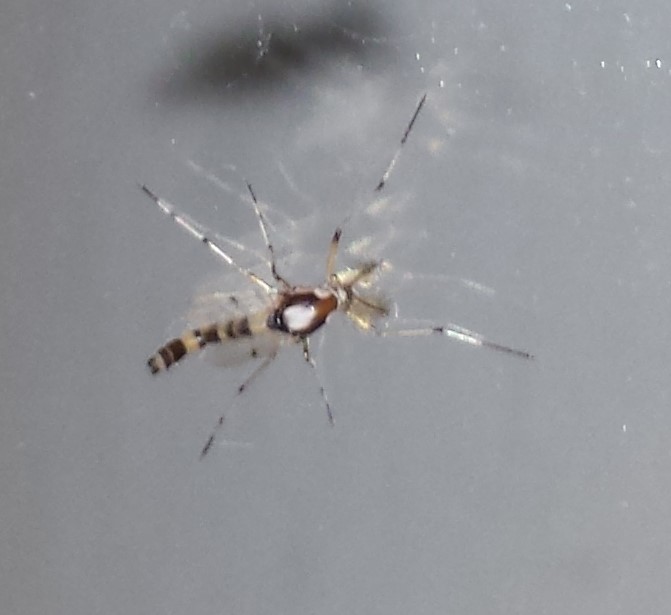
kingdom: Animalia
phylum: Arthropoda
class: Insecta
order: Diptera
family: Chironomidae
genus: Coelotanypus
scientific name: Coelotanypus tricolor
